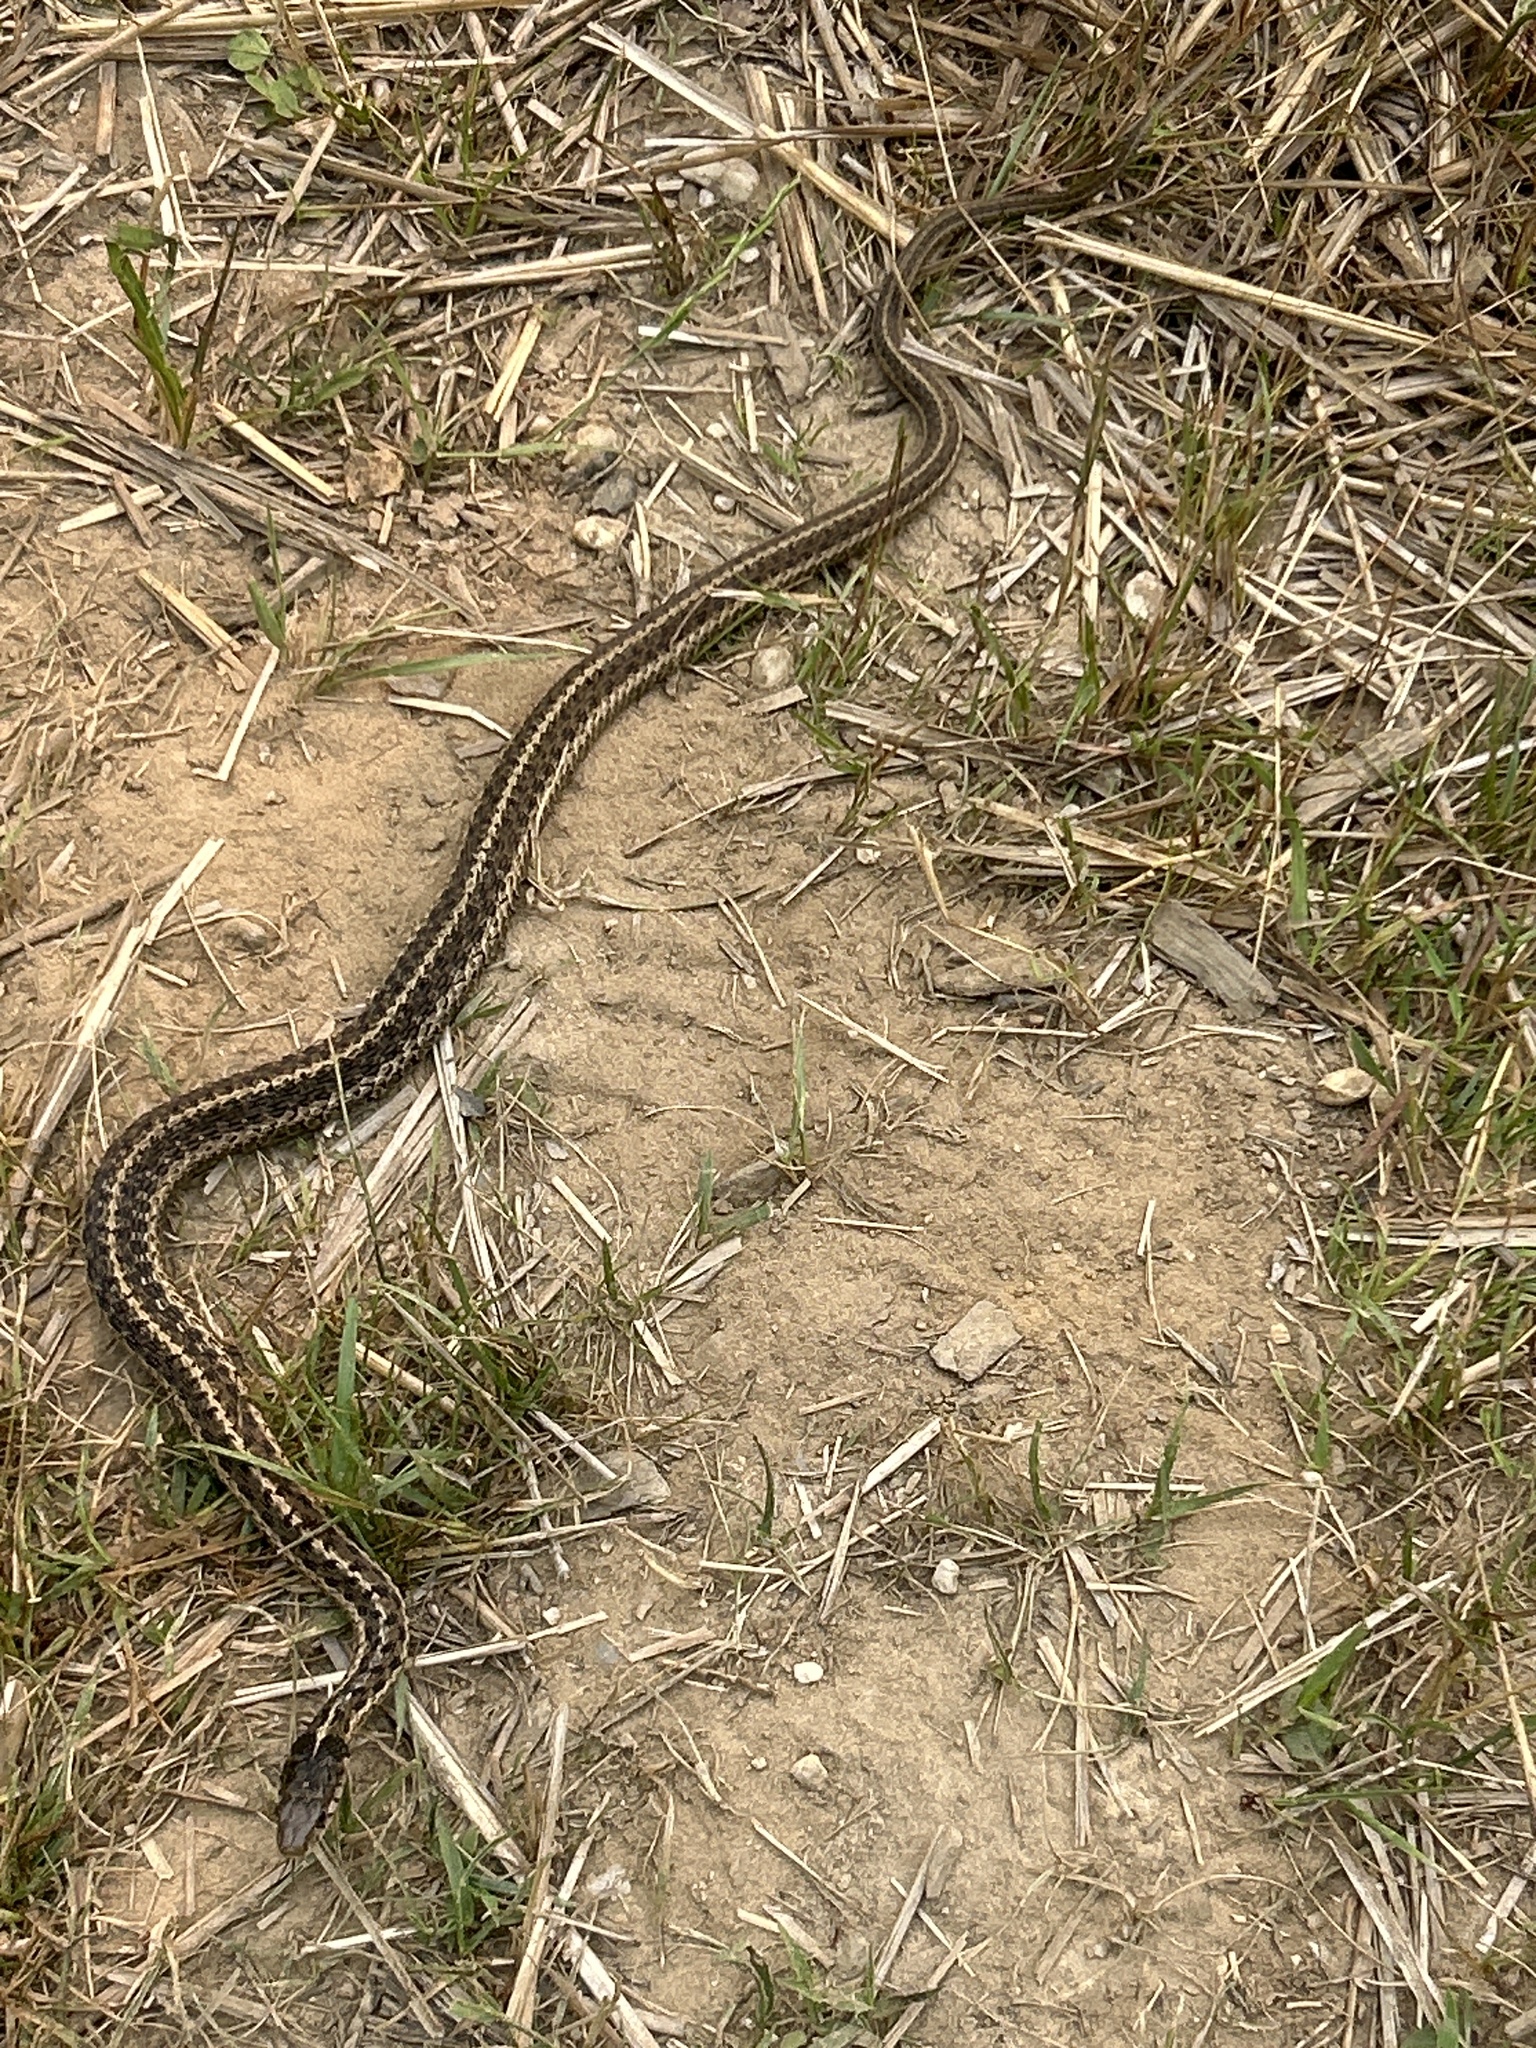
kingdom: Animalia
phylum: Chordata
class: Squamata
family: Colubridae
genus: Thamnophis
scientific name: Thamnophis sirtalis
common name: Common garter snake
